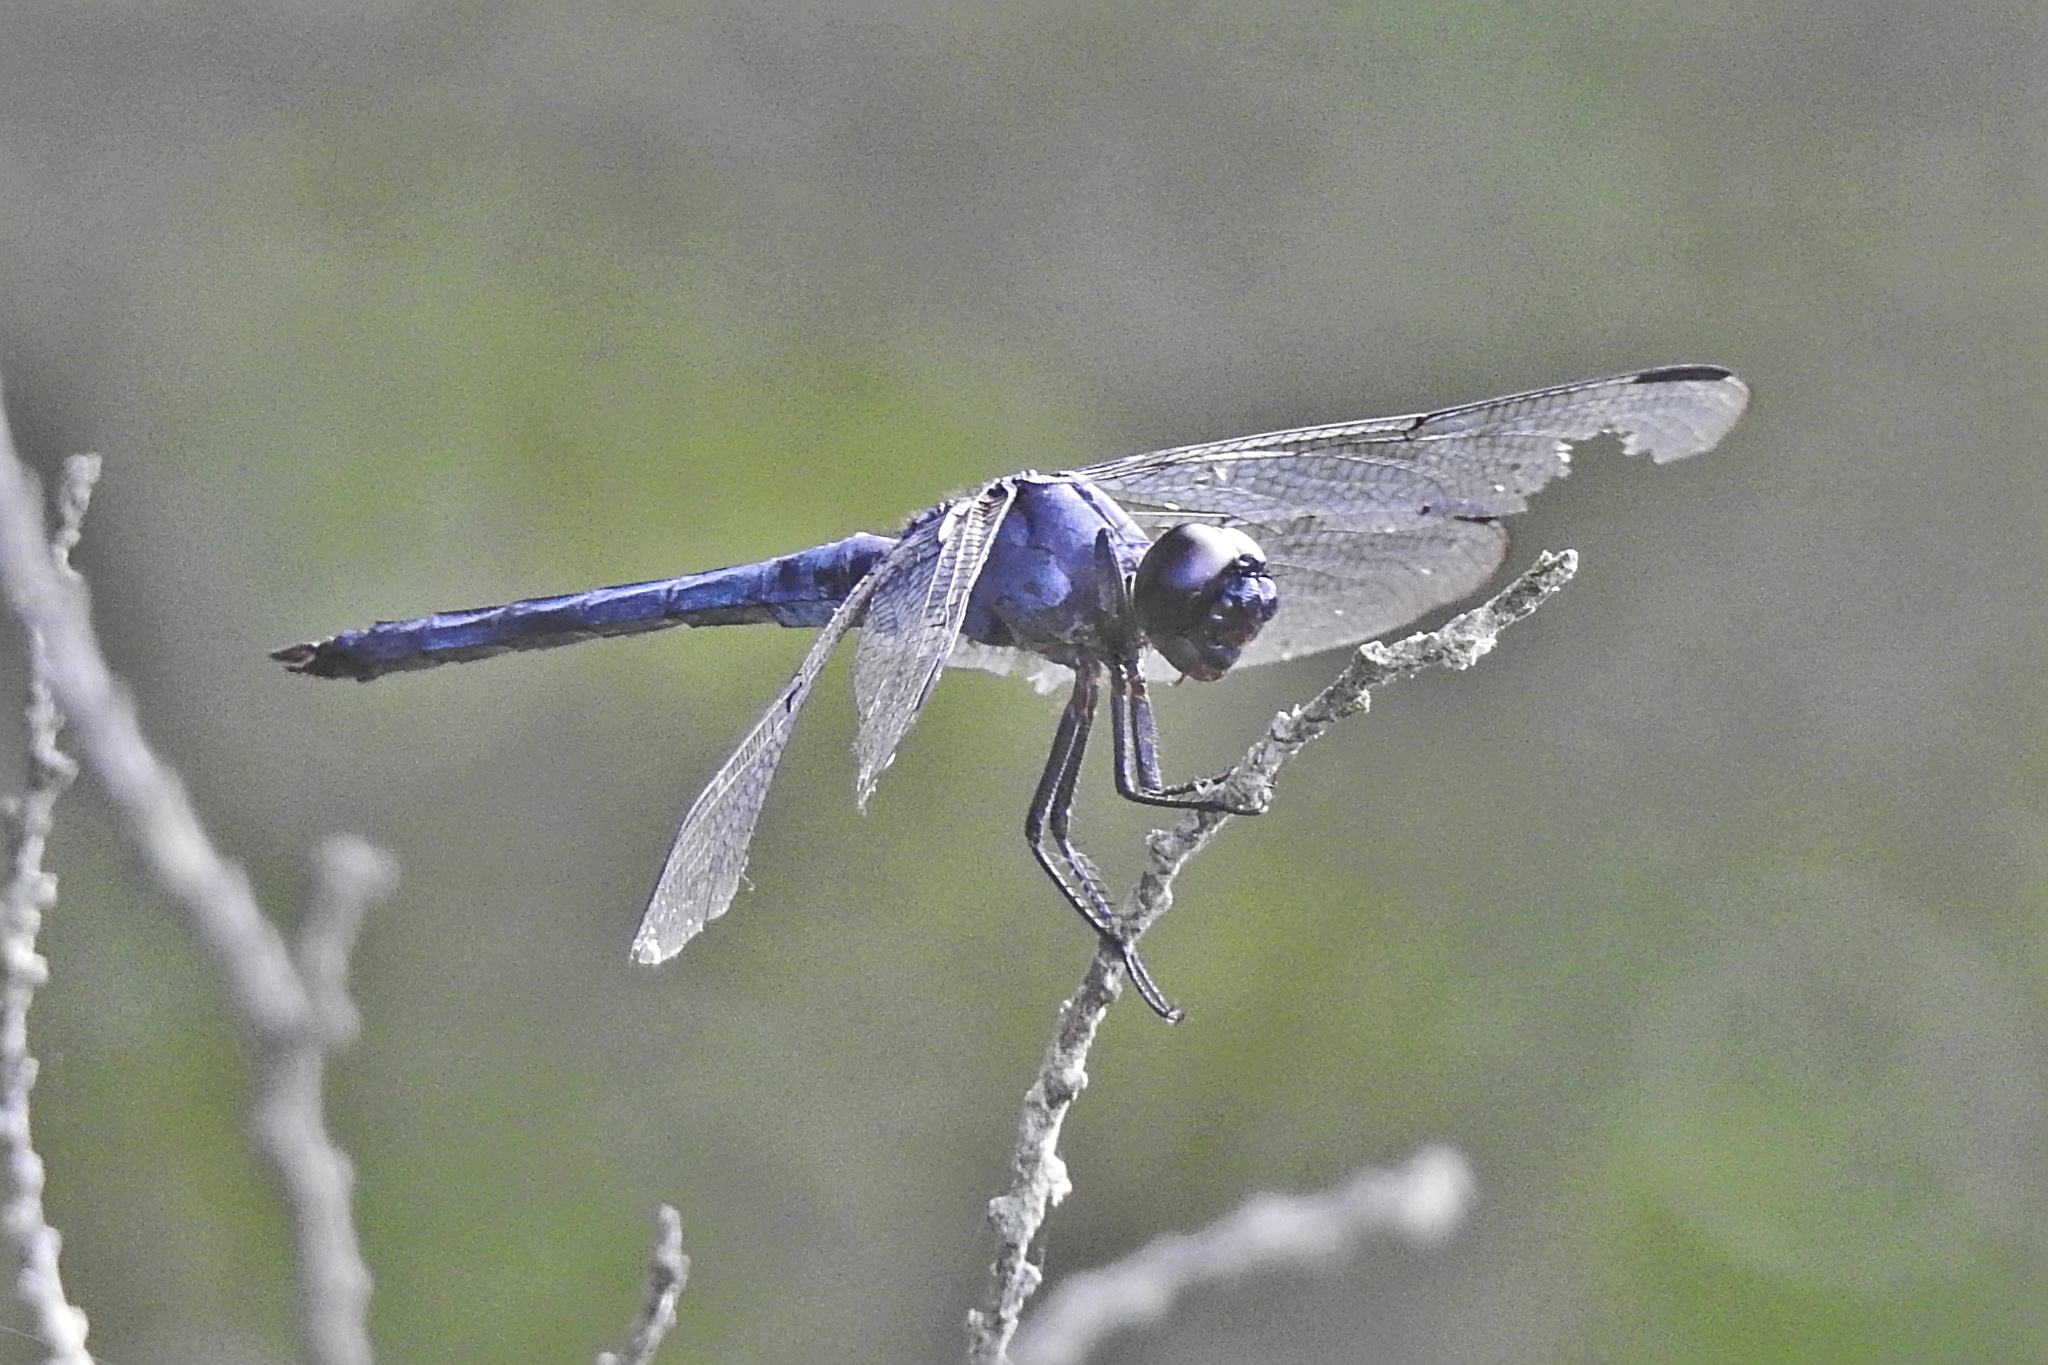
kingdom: Animalia
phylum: Arthropoda
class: Insecta
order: Odonata
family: Libellulidae
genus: Libellula
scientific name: Libellula incesta
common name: Slaty skimmer
